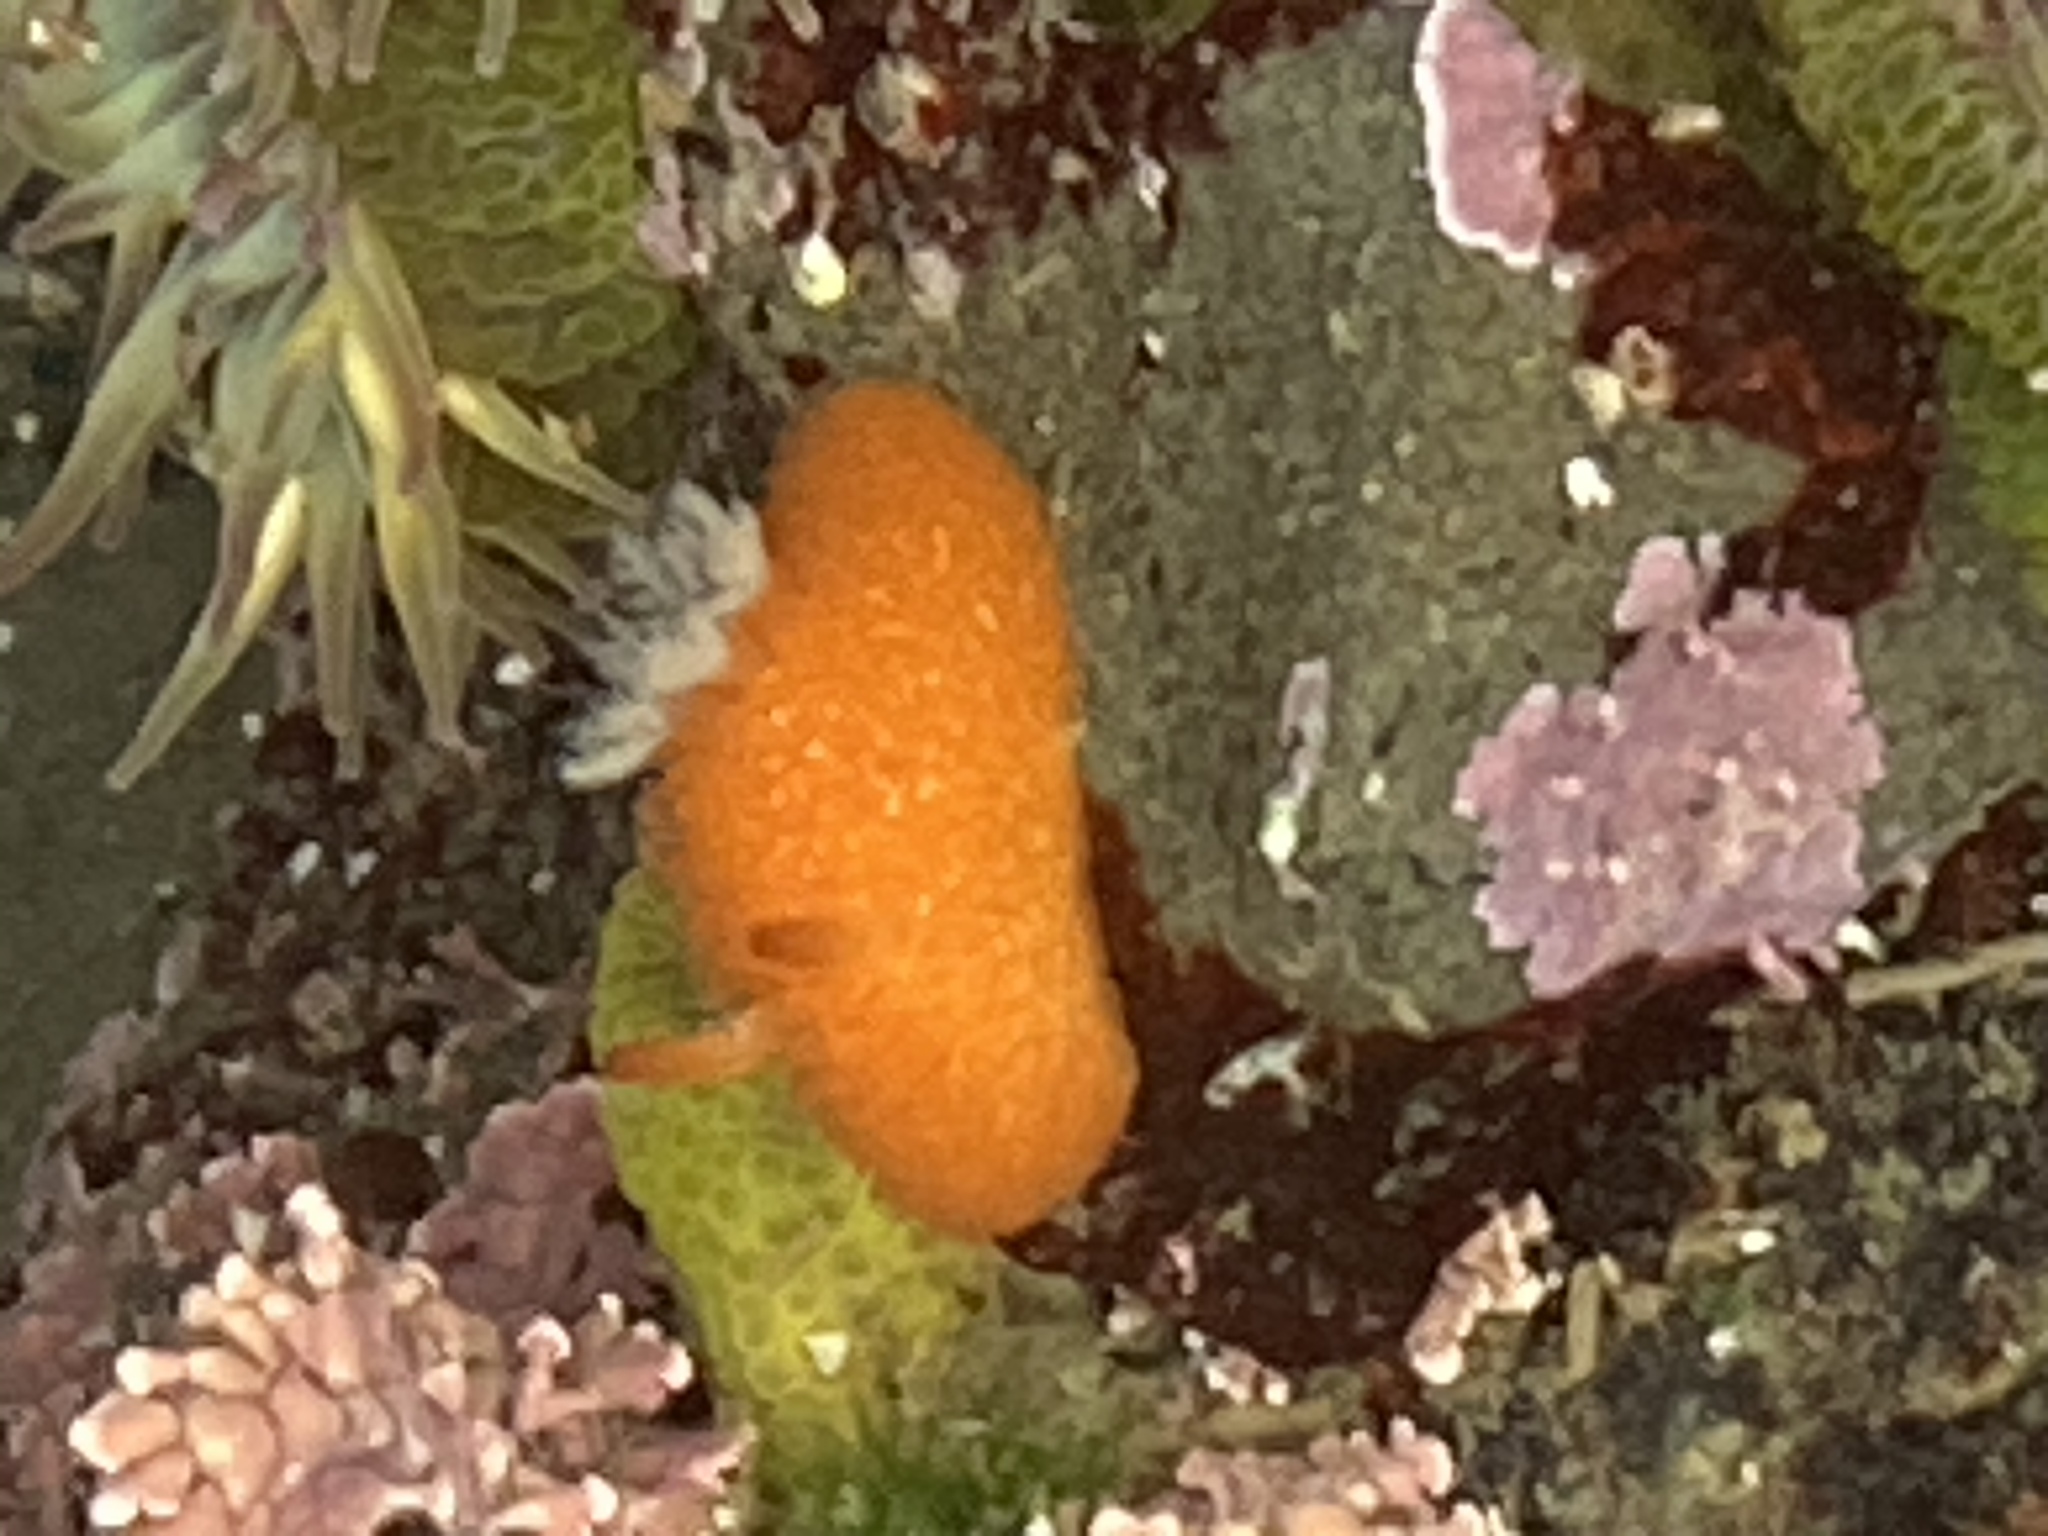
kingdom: Animalia
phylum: Mollusca
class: Gastropoda
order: Nudibranchia
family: Onchidorididae
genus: Acanthodoris
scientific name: Acanthodoris lutea
